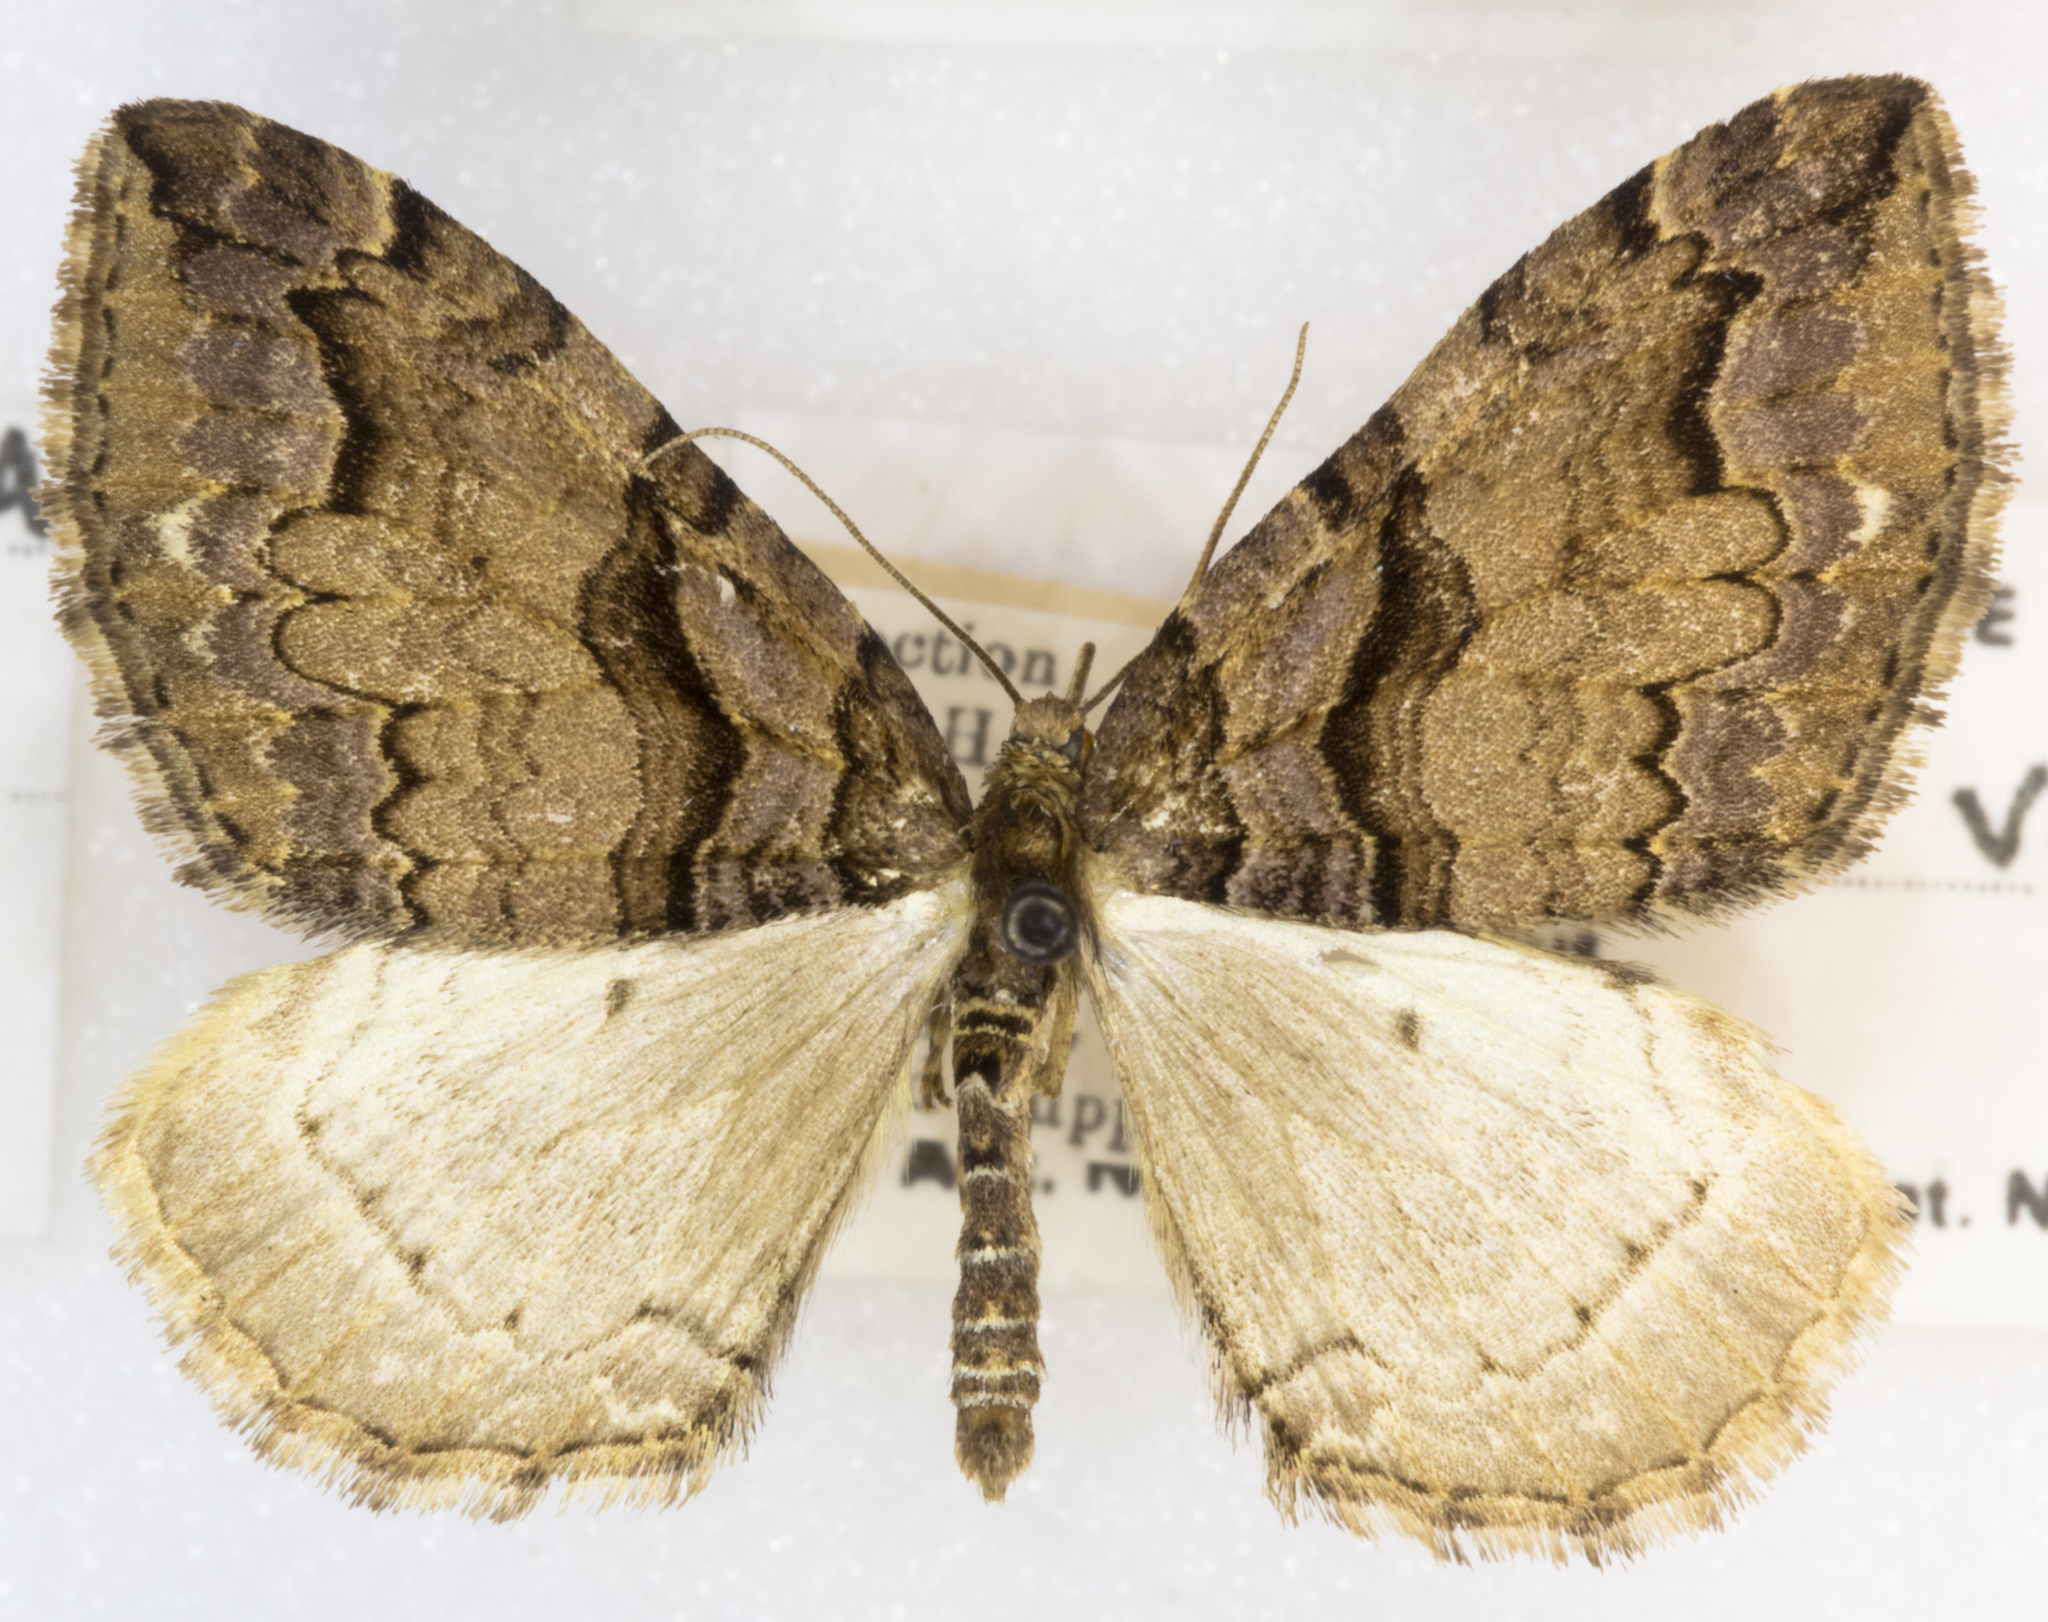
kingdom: Animalia
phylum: Arthropoda
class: Insecta
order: Lepidoptera
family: Geometridae
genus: Anticlea
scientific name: Anticlea vasiliata
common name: Variable carpet
